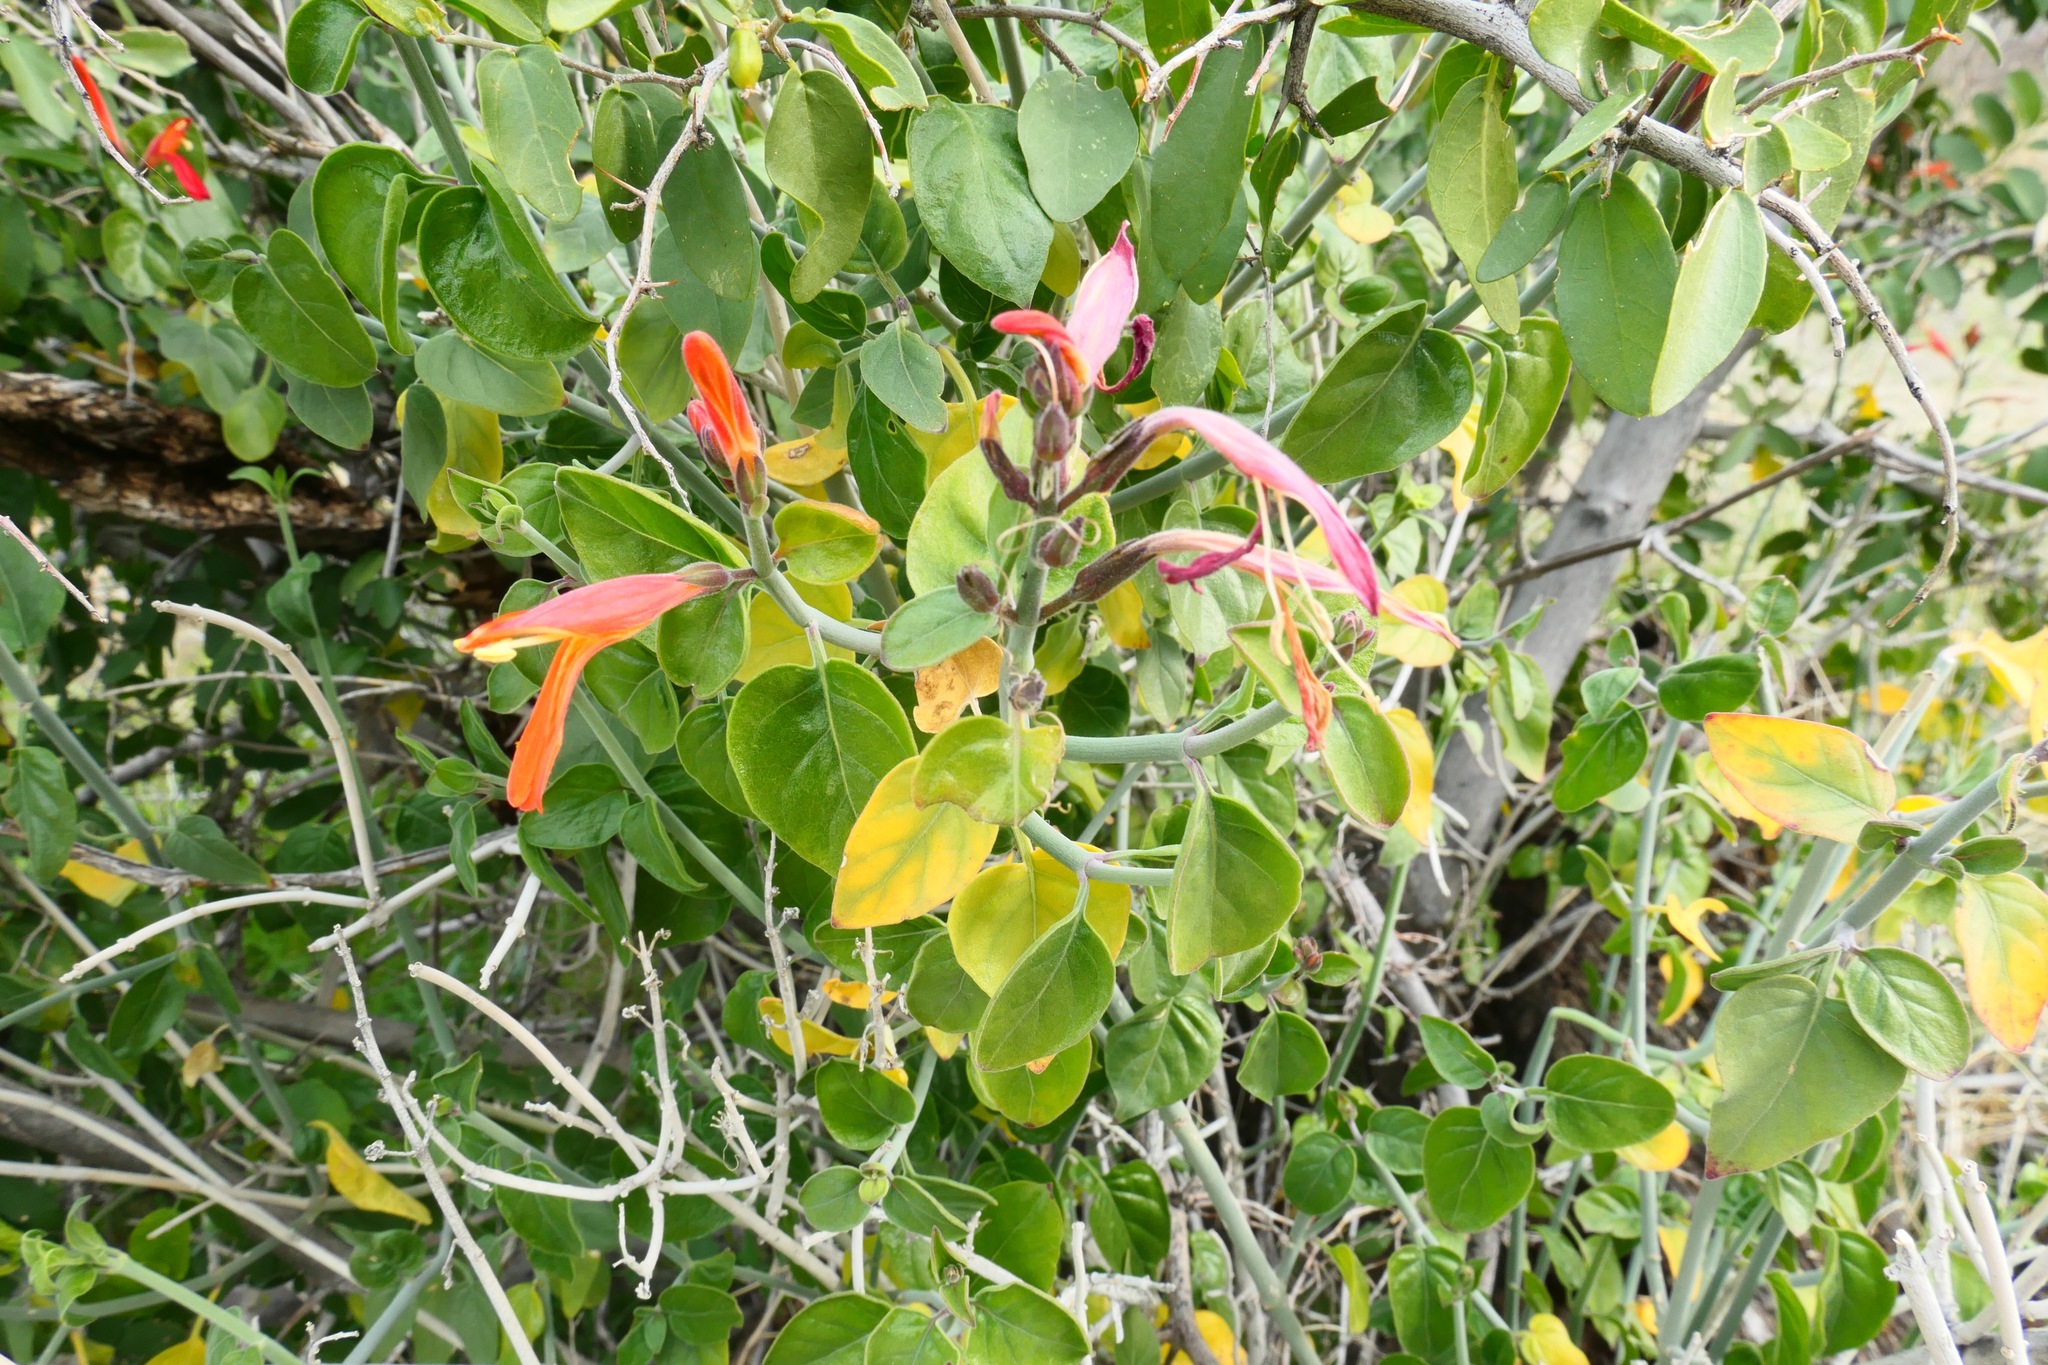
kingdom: Plantae
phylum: Tracheophyta
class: Magnoliopsida
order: Lamiales
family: Acanthaceae
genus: Justicia
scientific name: Justicia californica
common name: Chuparosa-honeysuckle
